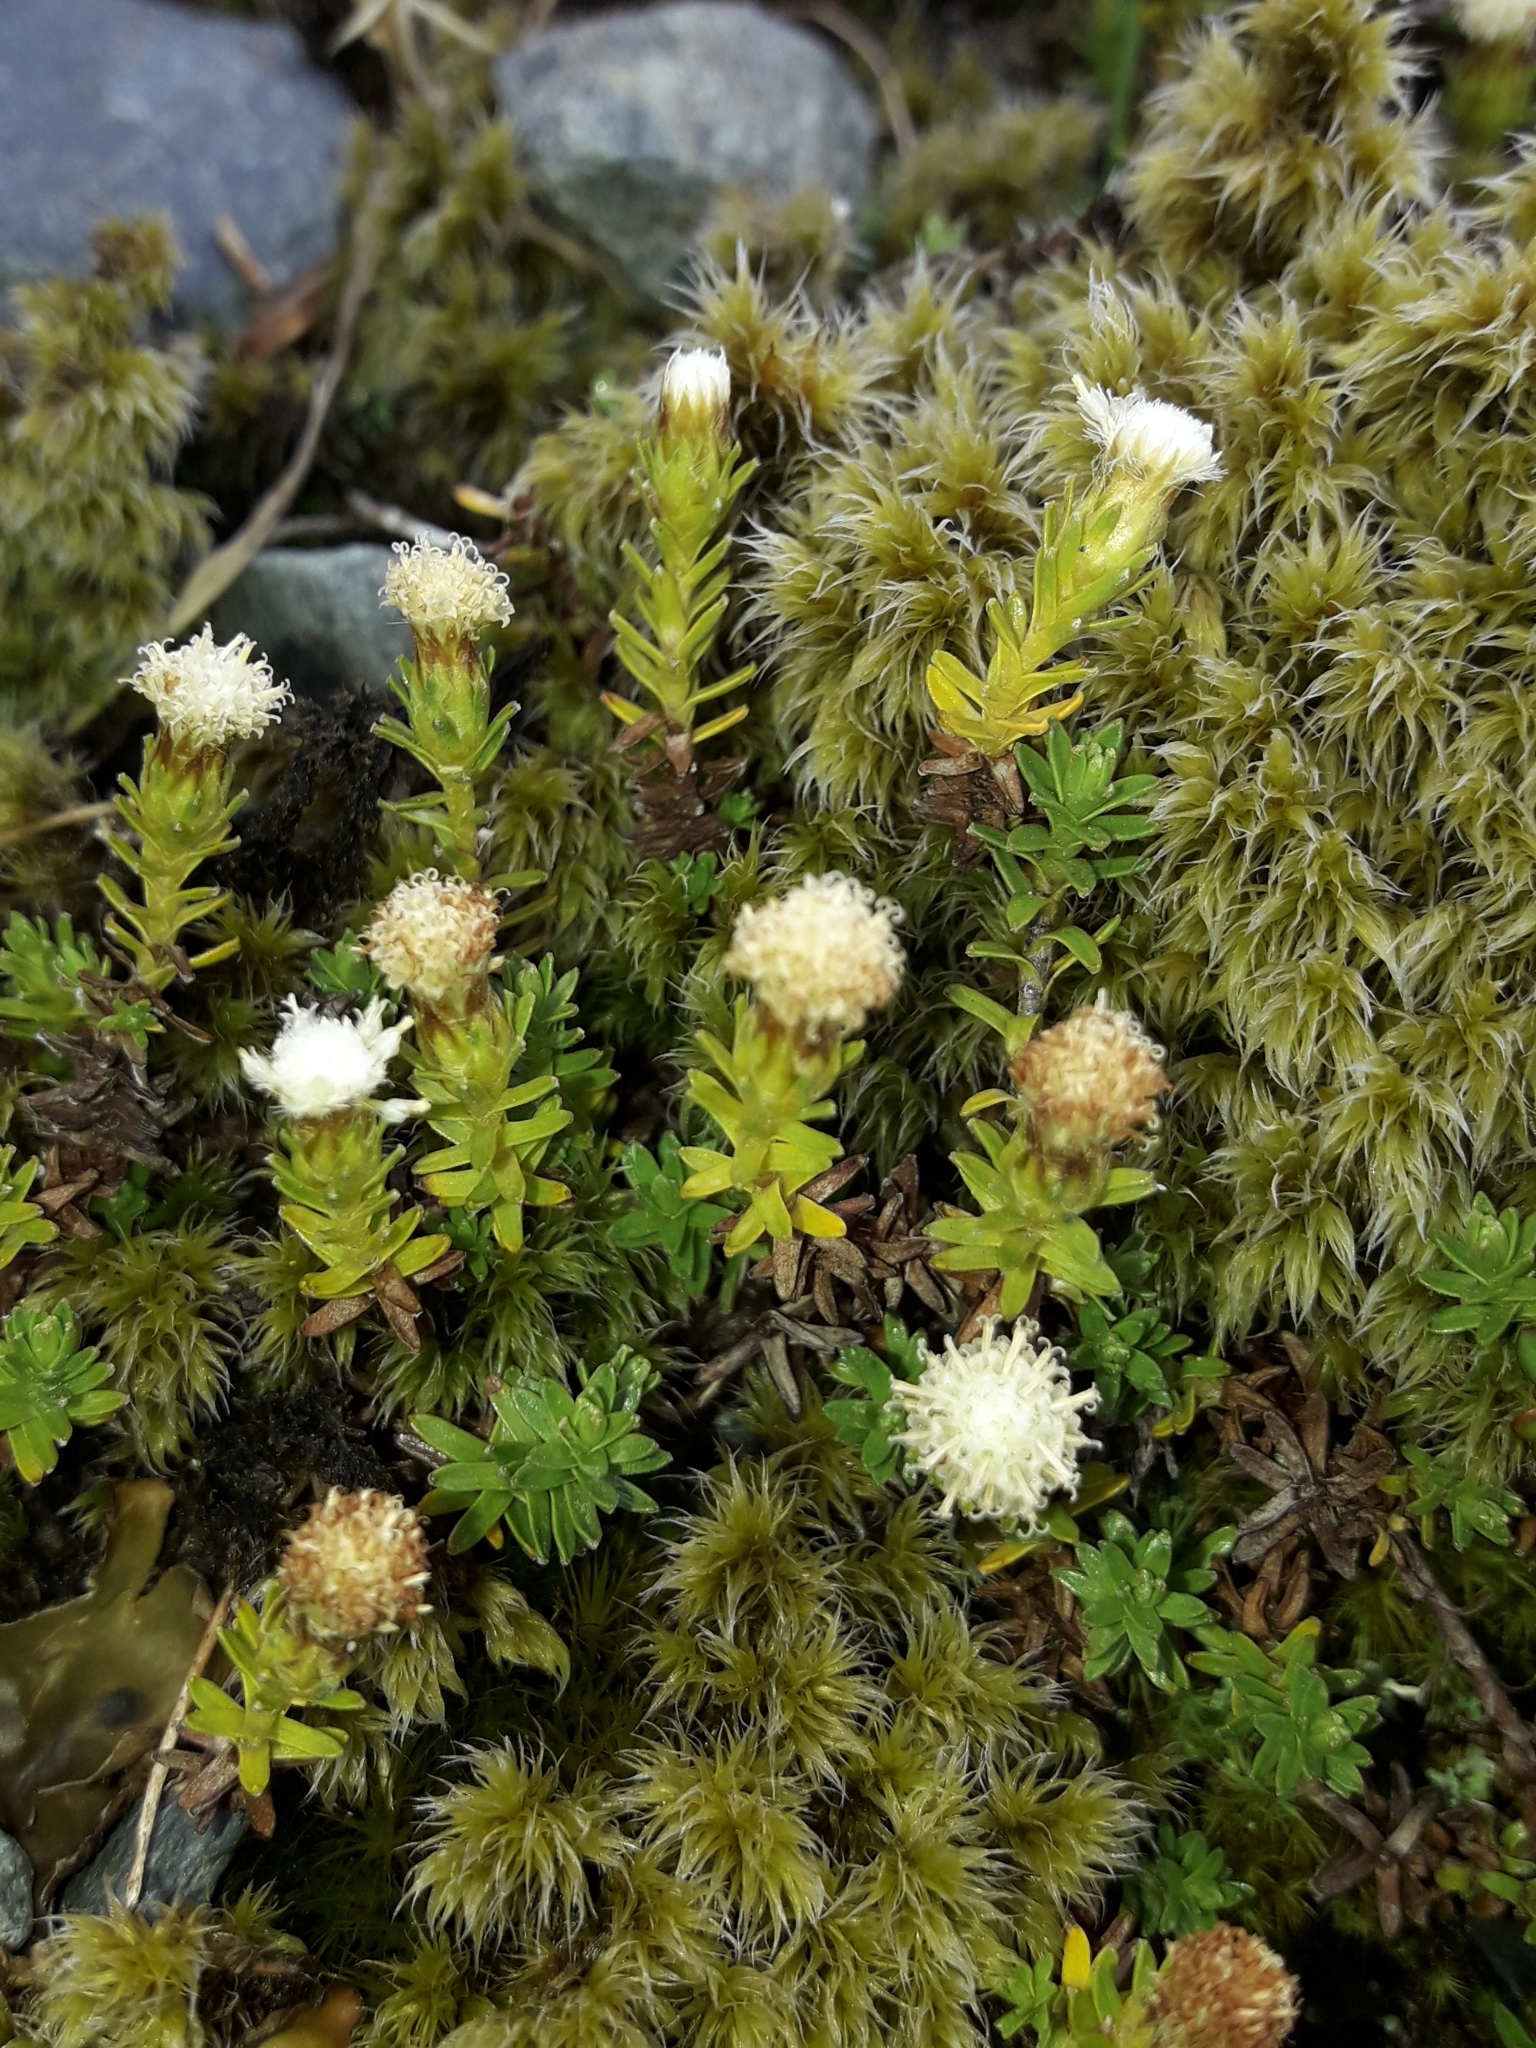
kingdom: Plantae
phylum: Tracheophyta
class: Magnoliopsida
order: Asterales
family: Asteraceae
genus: Raoulia
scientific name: Raoulia glabra
